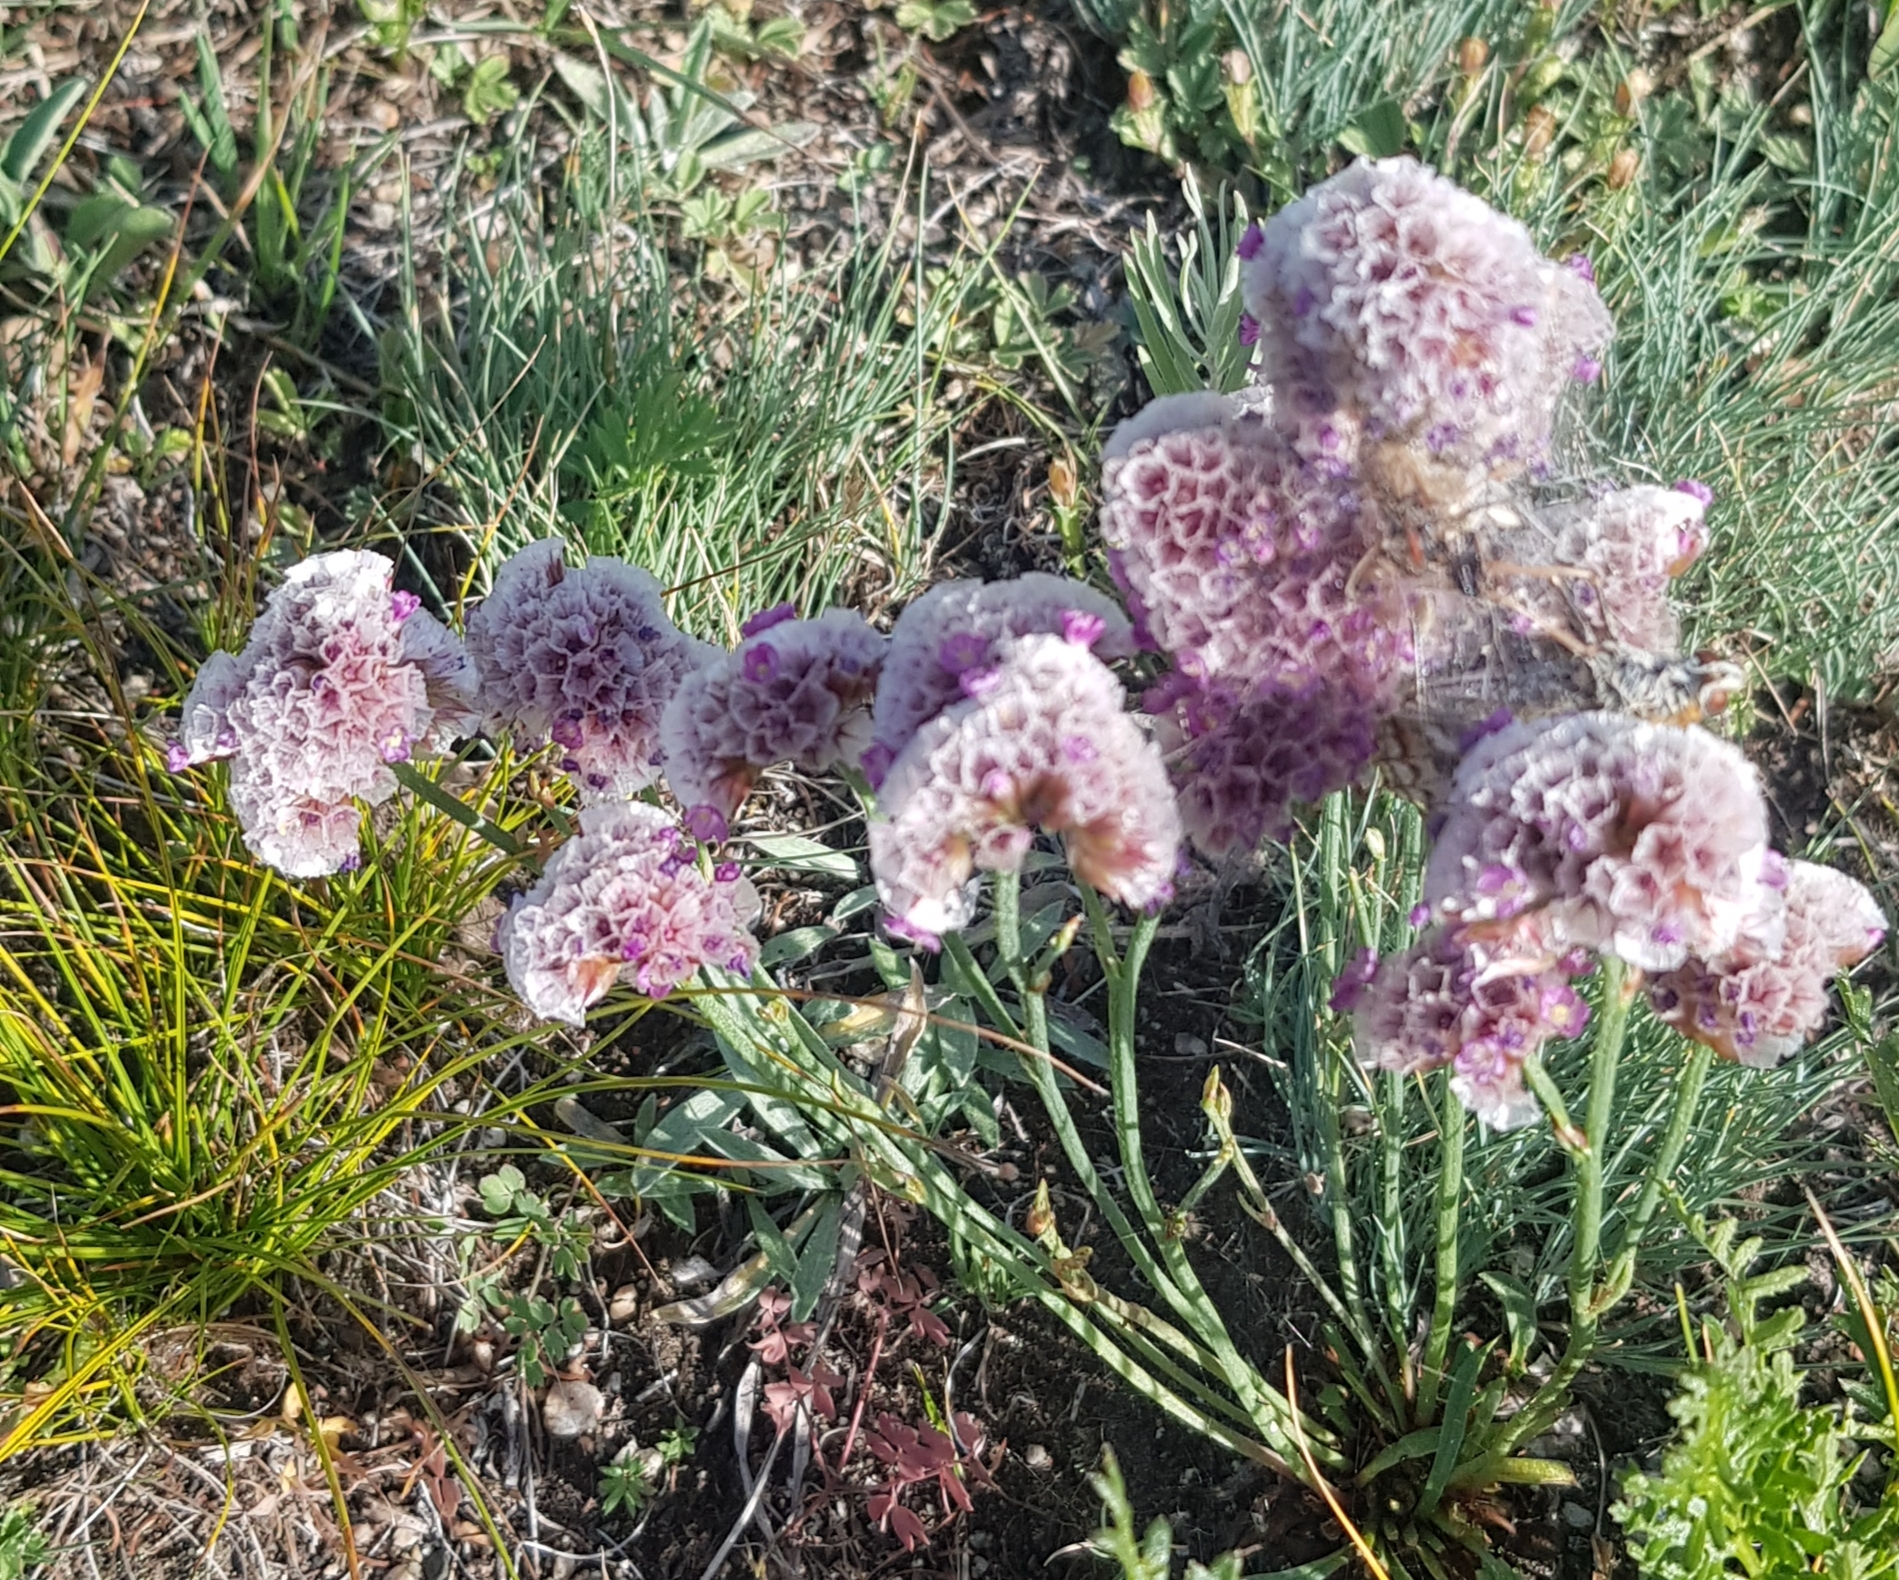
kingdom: Plantae
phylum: Tracheophyta
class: Magnoliopsida
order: Caryophyllales
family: Plumbaginaceae
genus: Goniolimon
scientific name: Goniolimon speciosum
